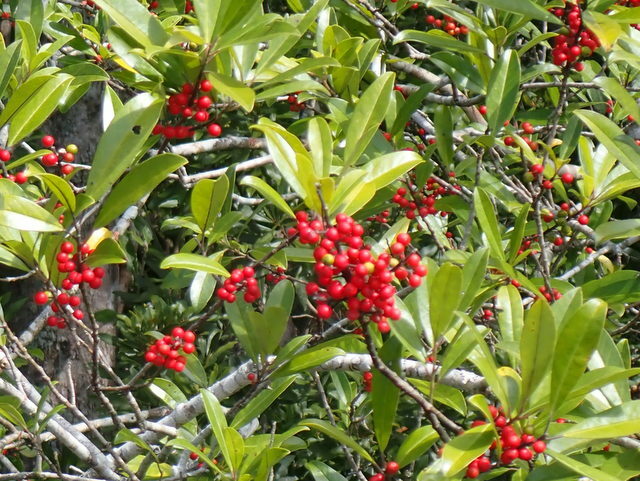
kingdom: Plantae
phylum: Tracheophyta
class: Magnoliopsida
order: Aquifoliales
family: Aquifoliaceae
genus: Ilex
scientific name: Ilex cassine
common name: Dahoon
